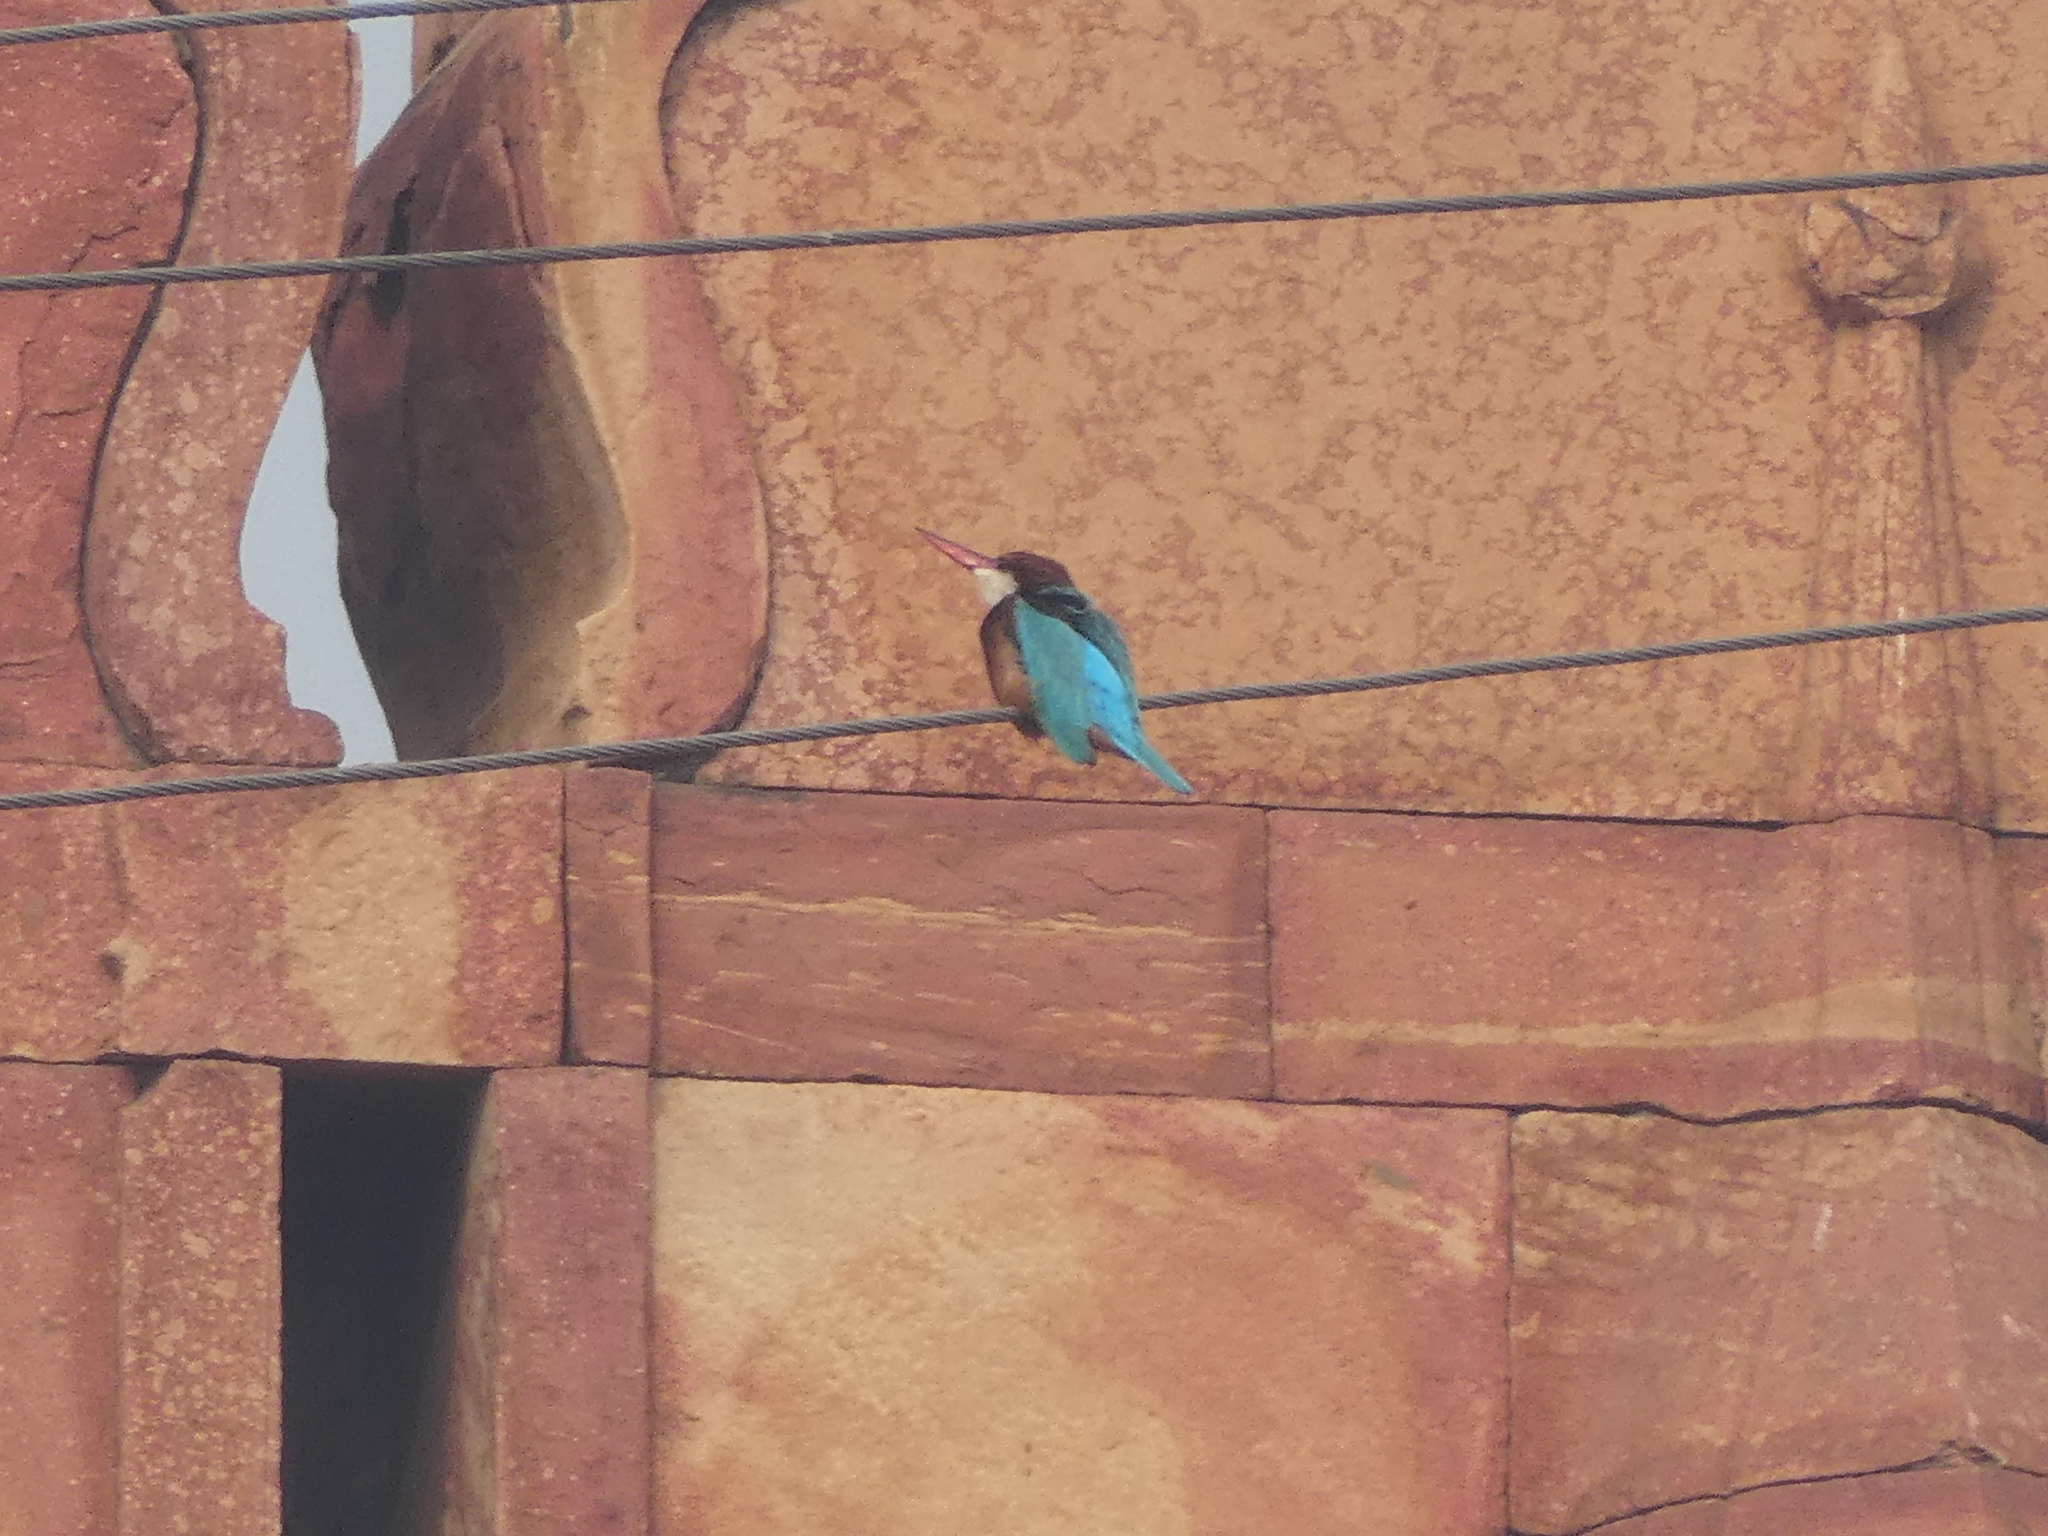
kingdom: Animalia
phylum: Chordata
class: Aves
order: Coraciiformes
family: Alcedinidae
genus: Halcyon
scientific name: Halcyon smyrnensis
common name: White-throated kingfisher
